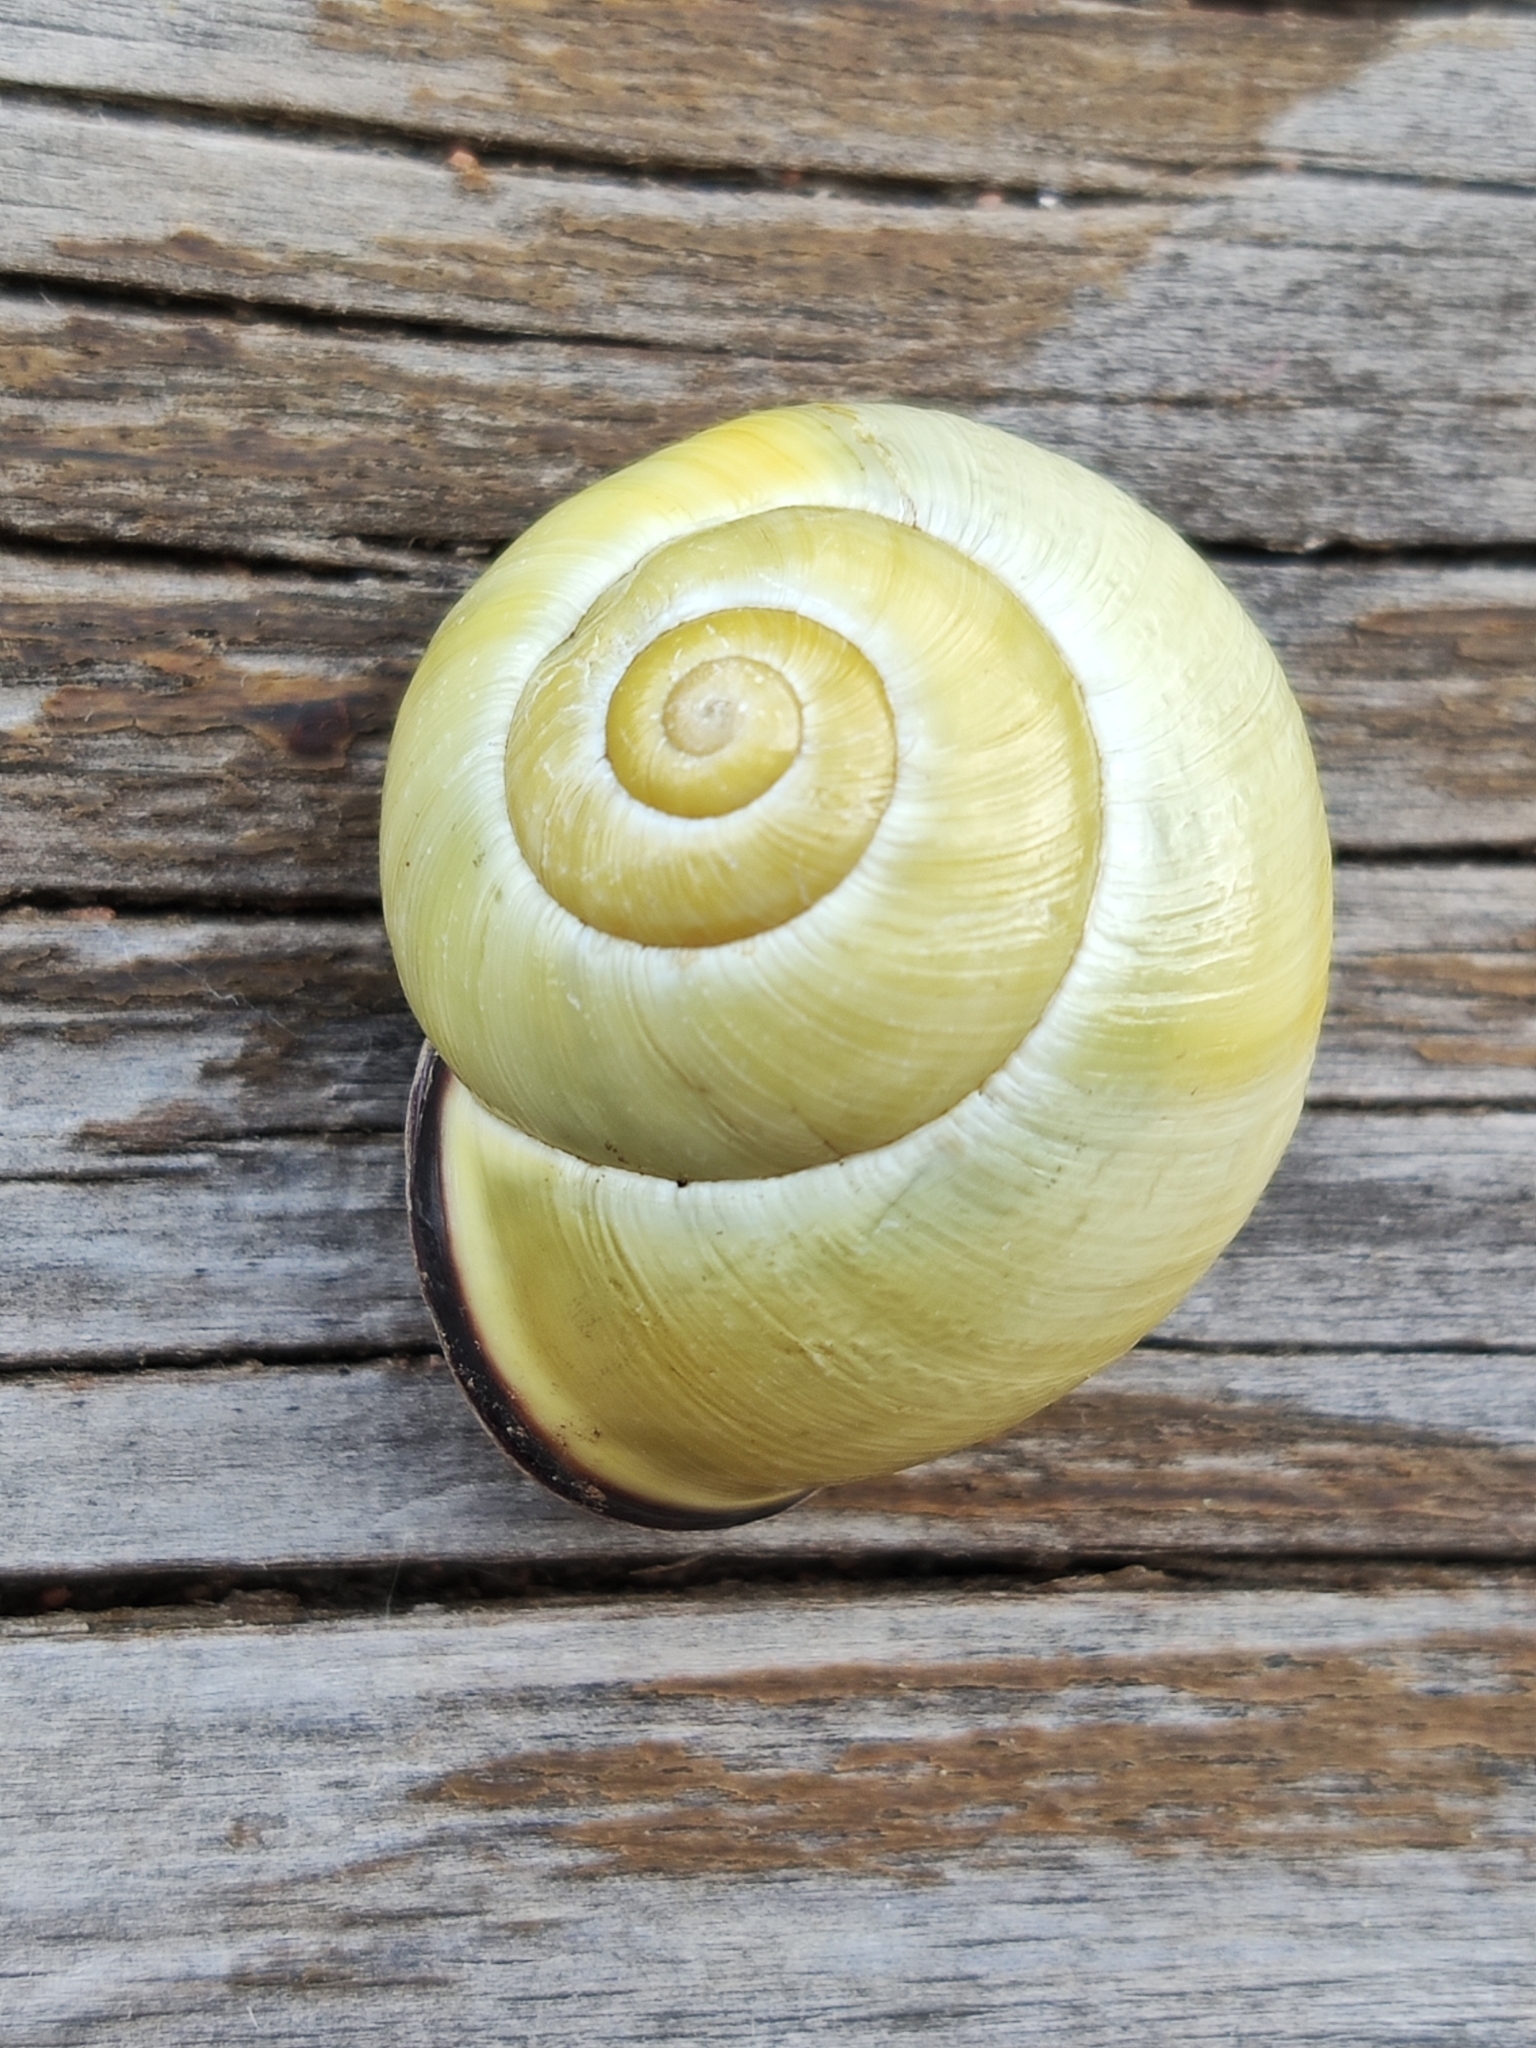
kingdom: Animalia
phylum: Mollusca
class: Gastropoda
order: Stylommatophora
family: Helicidae
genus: Cepaea
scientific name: Cepaea nemoralis
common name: Grovesnail
